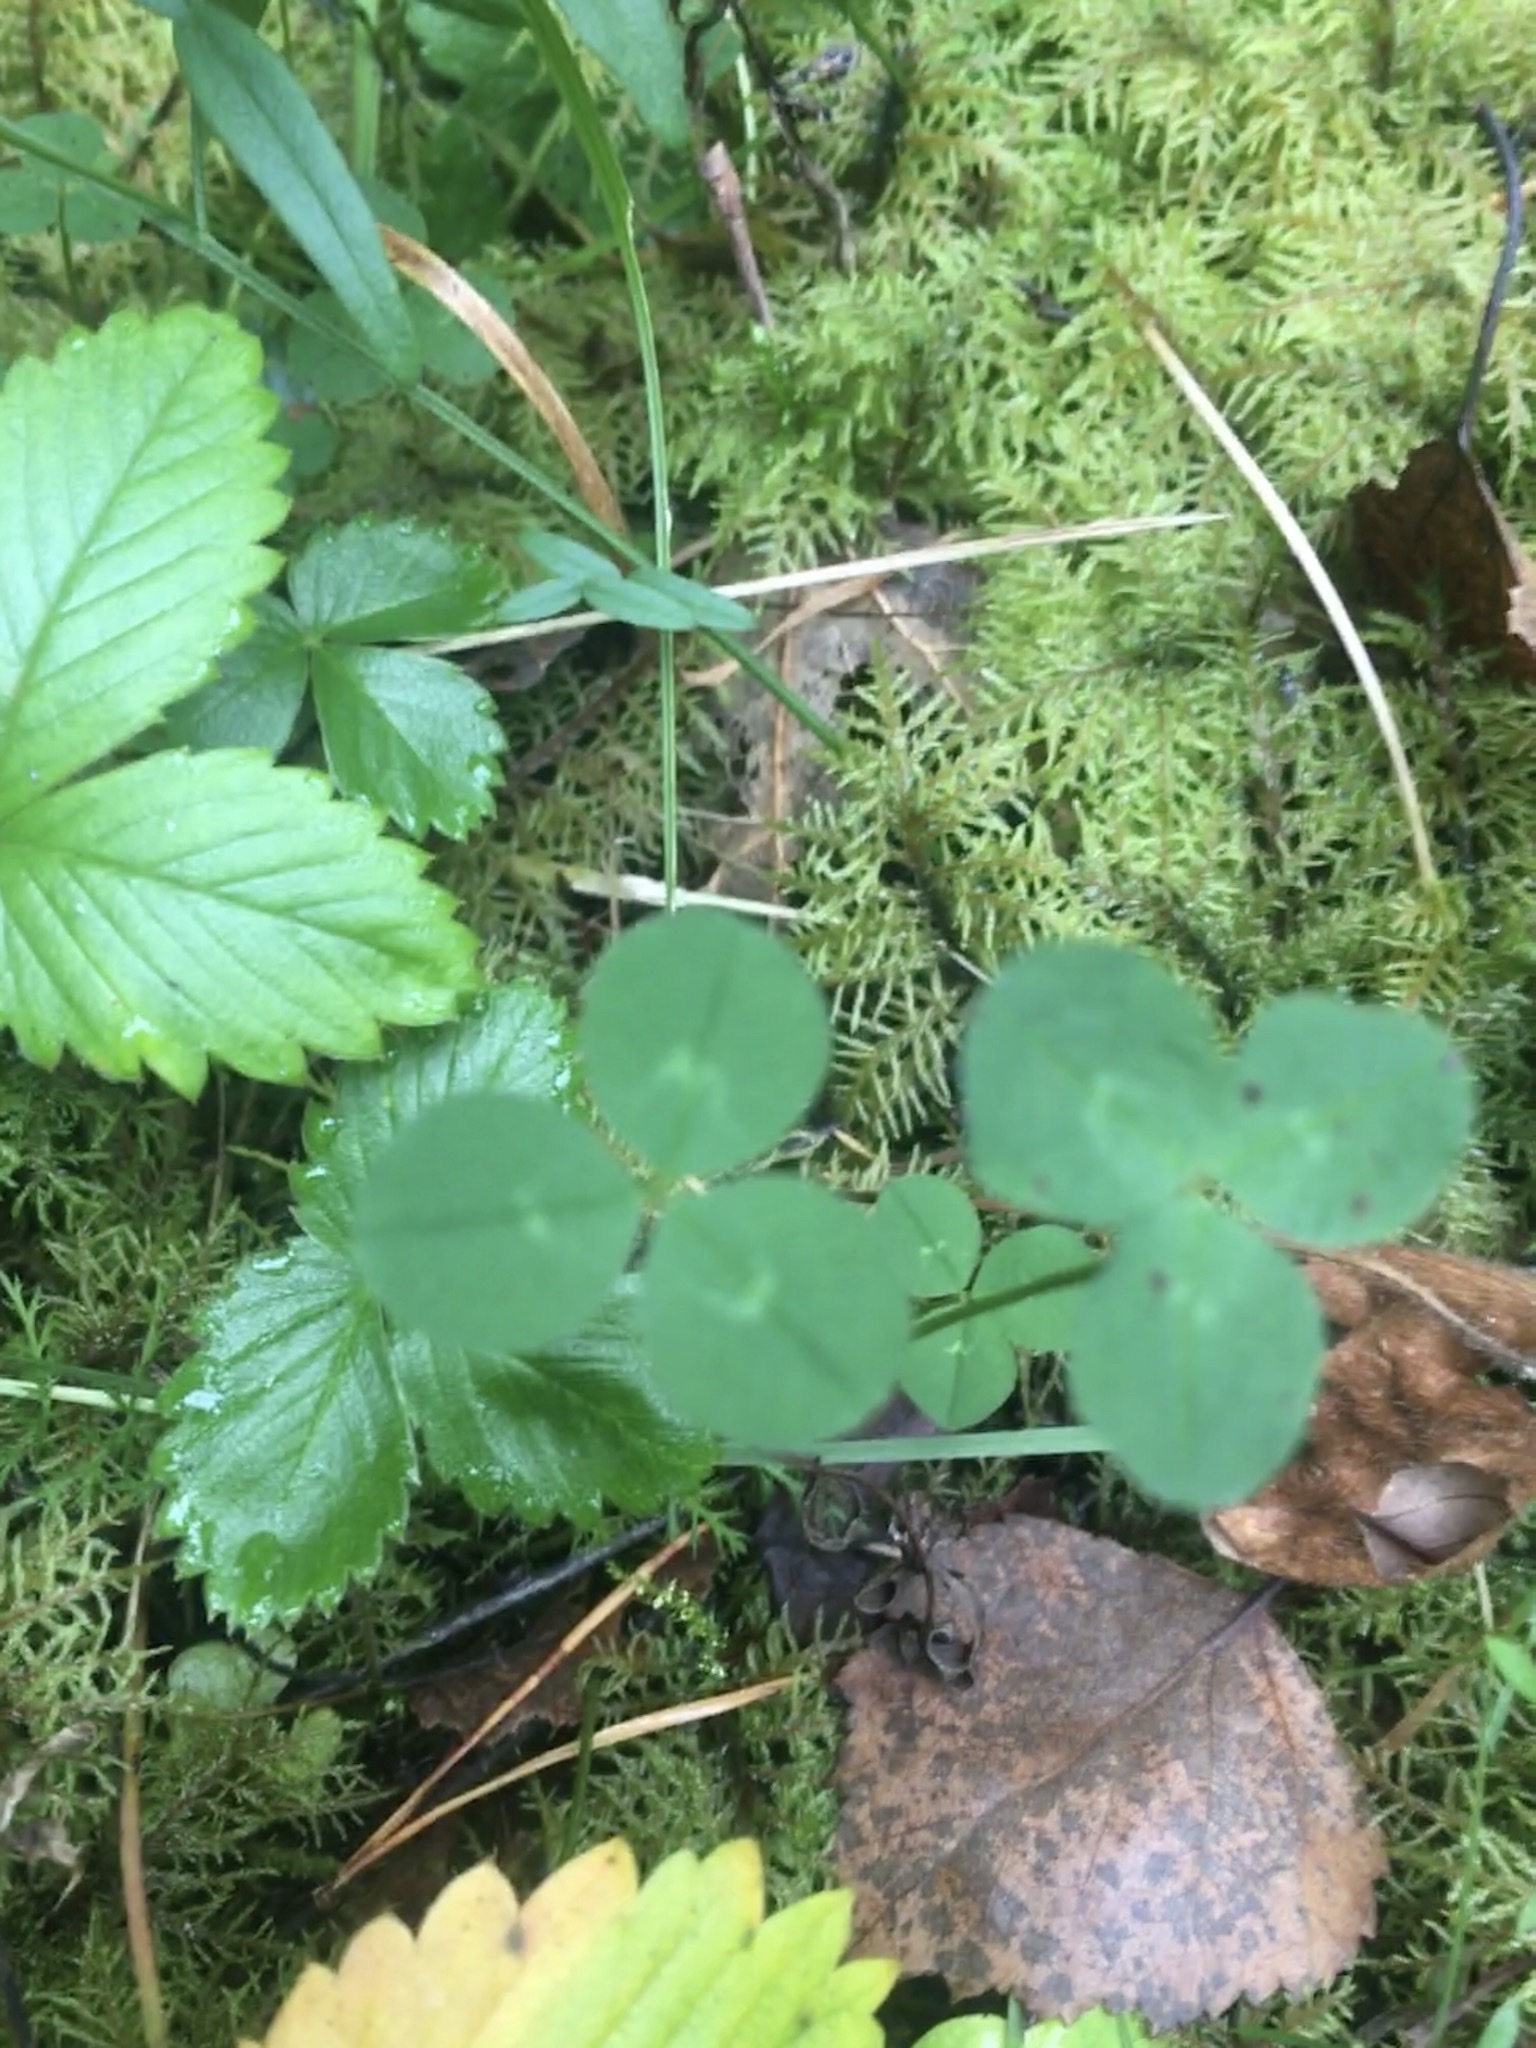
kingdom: Plantae
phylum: Tracheophyta
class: Magnoliopsida
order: Fabales
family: Fabaceae
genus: Trifolium
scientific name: Trifolium repens
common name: White clover
